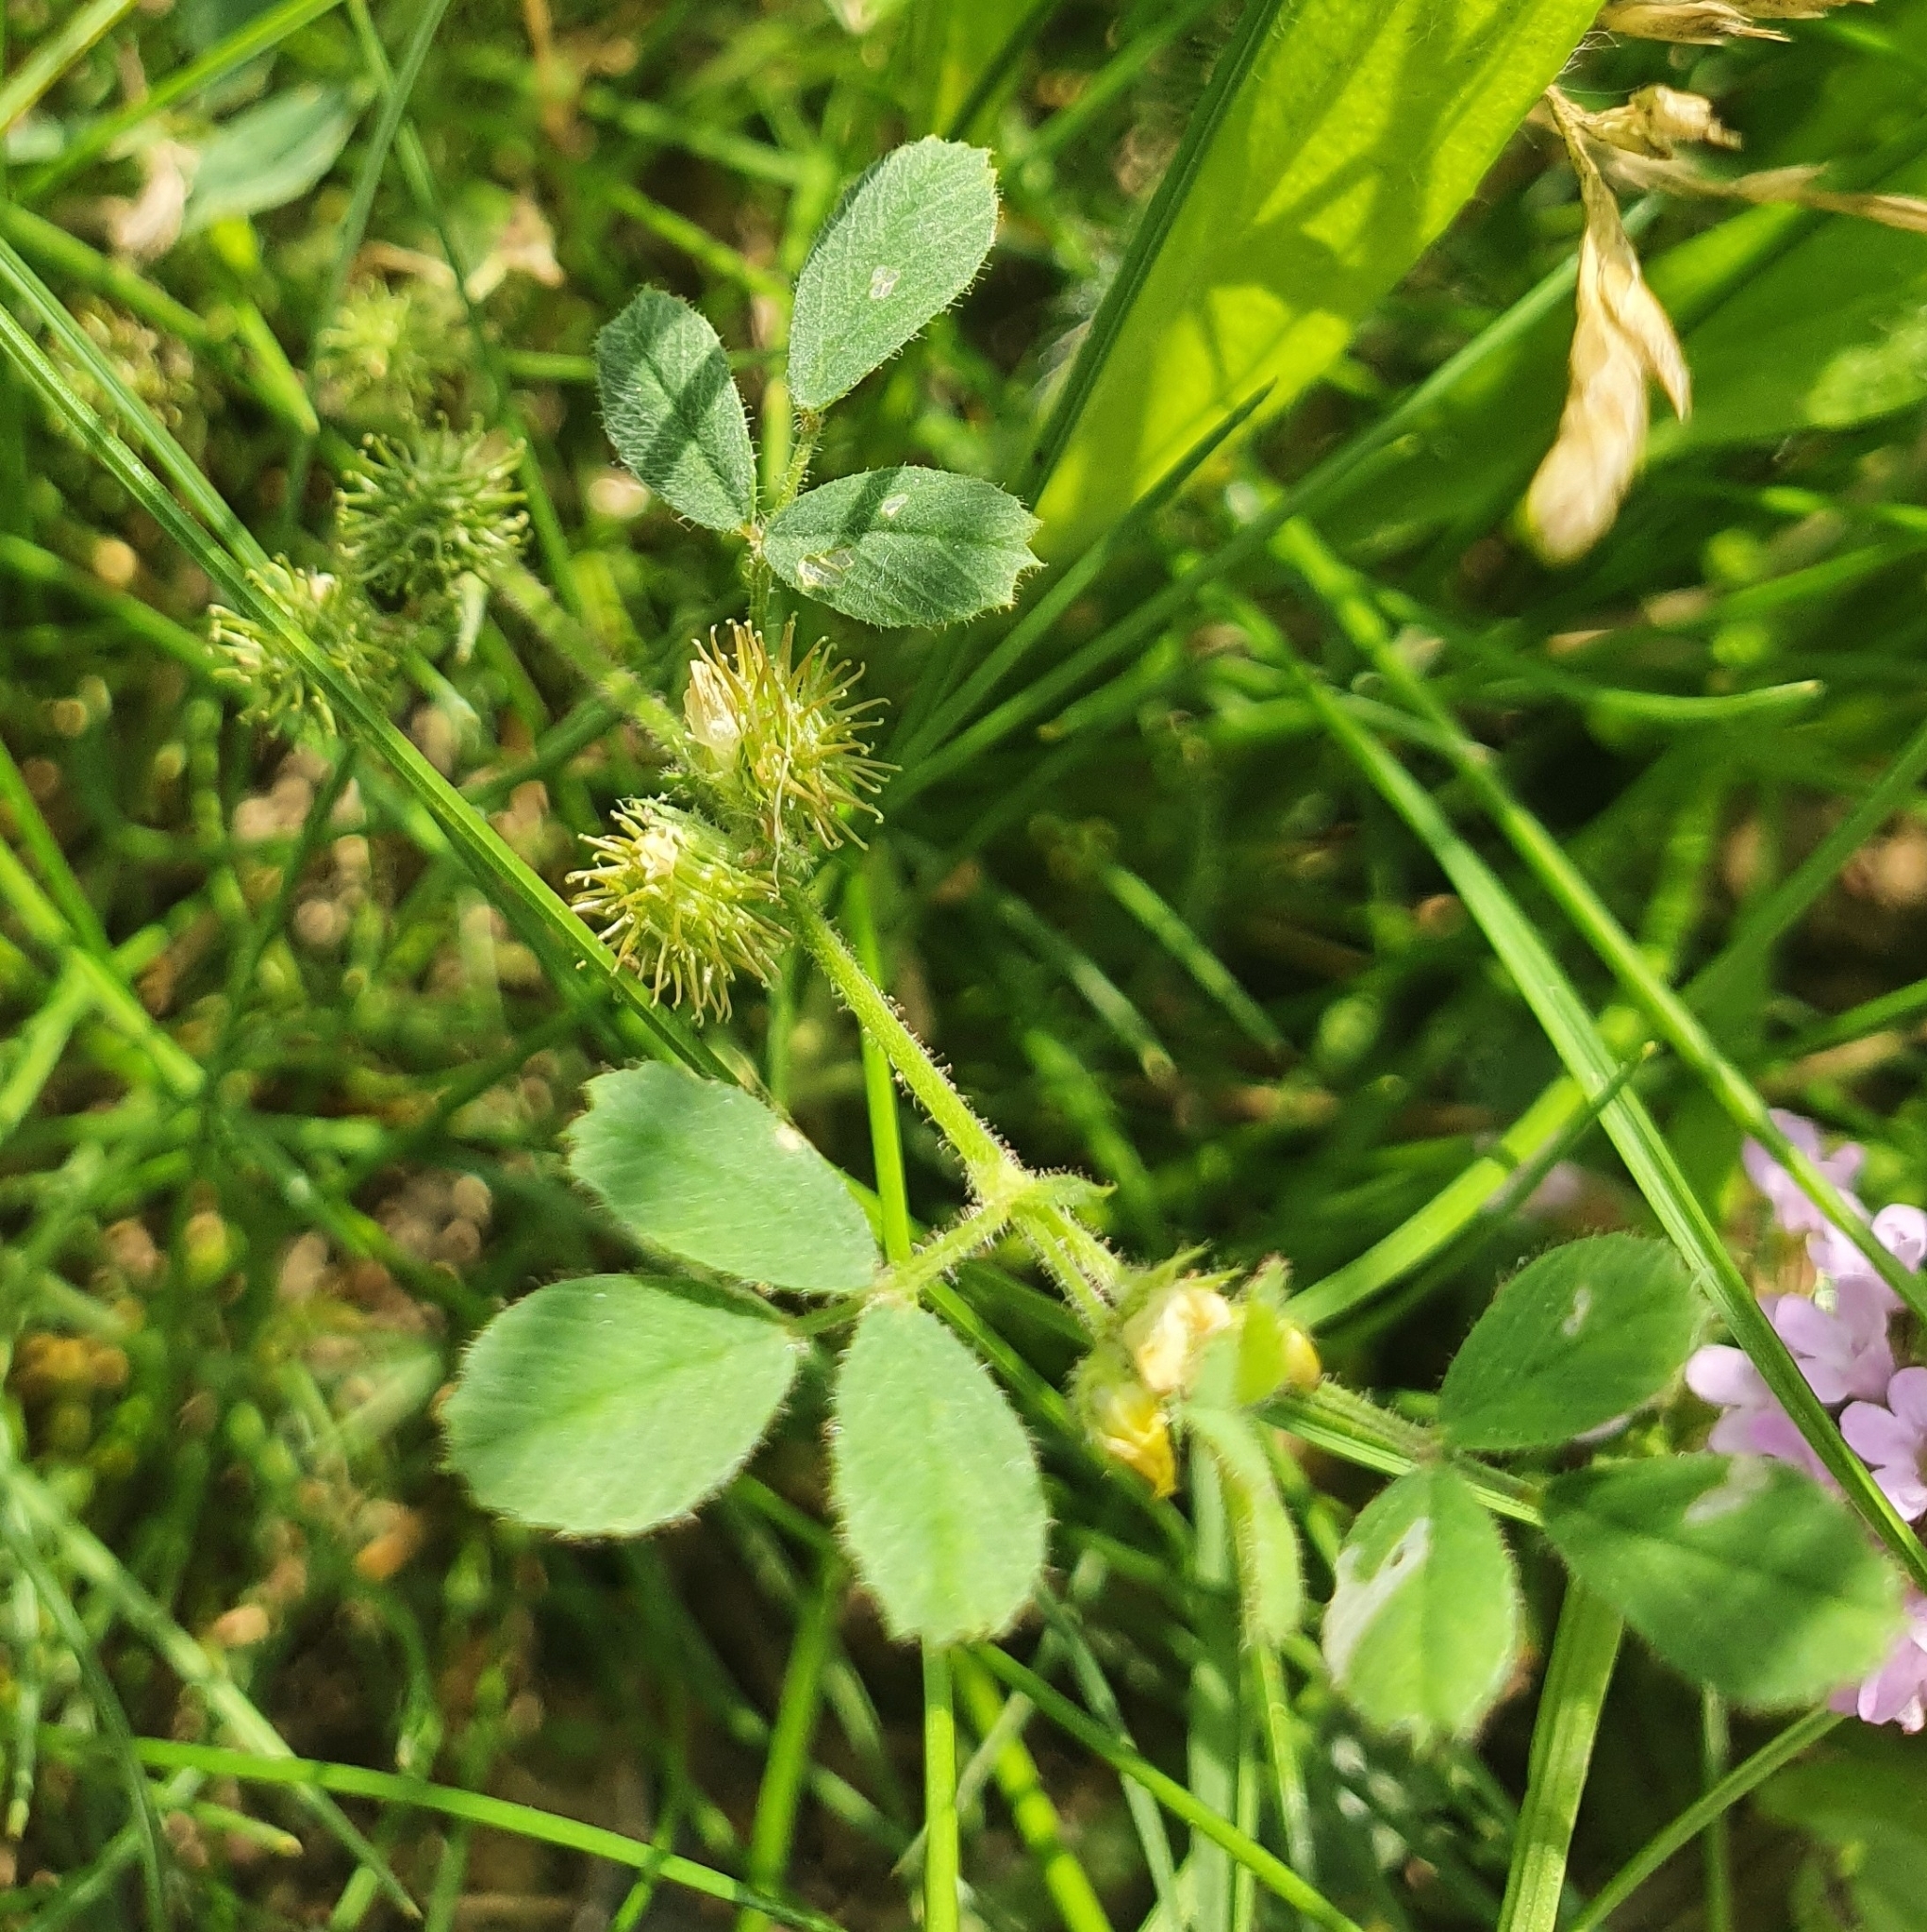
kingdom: Plantae
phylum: Tracheophyta
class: Magnoliopsida
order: Fabales
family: Fabaceae
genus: Medicago
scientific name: Medicago minima
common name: Little bur-clover
